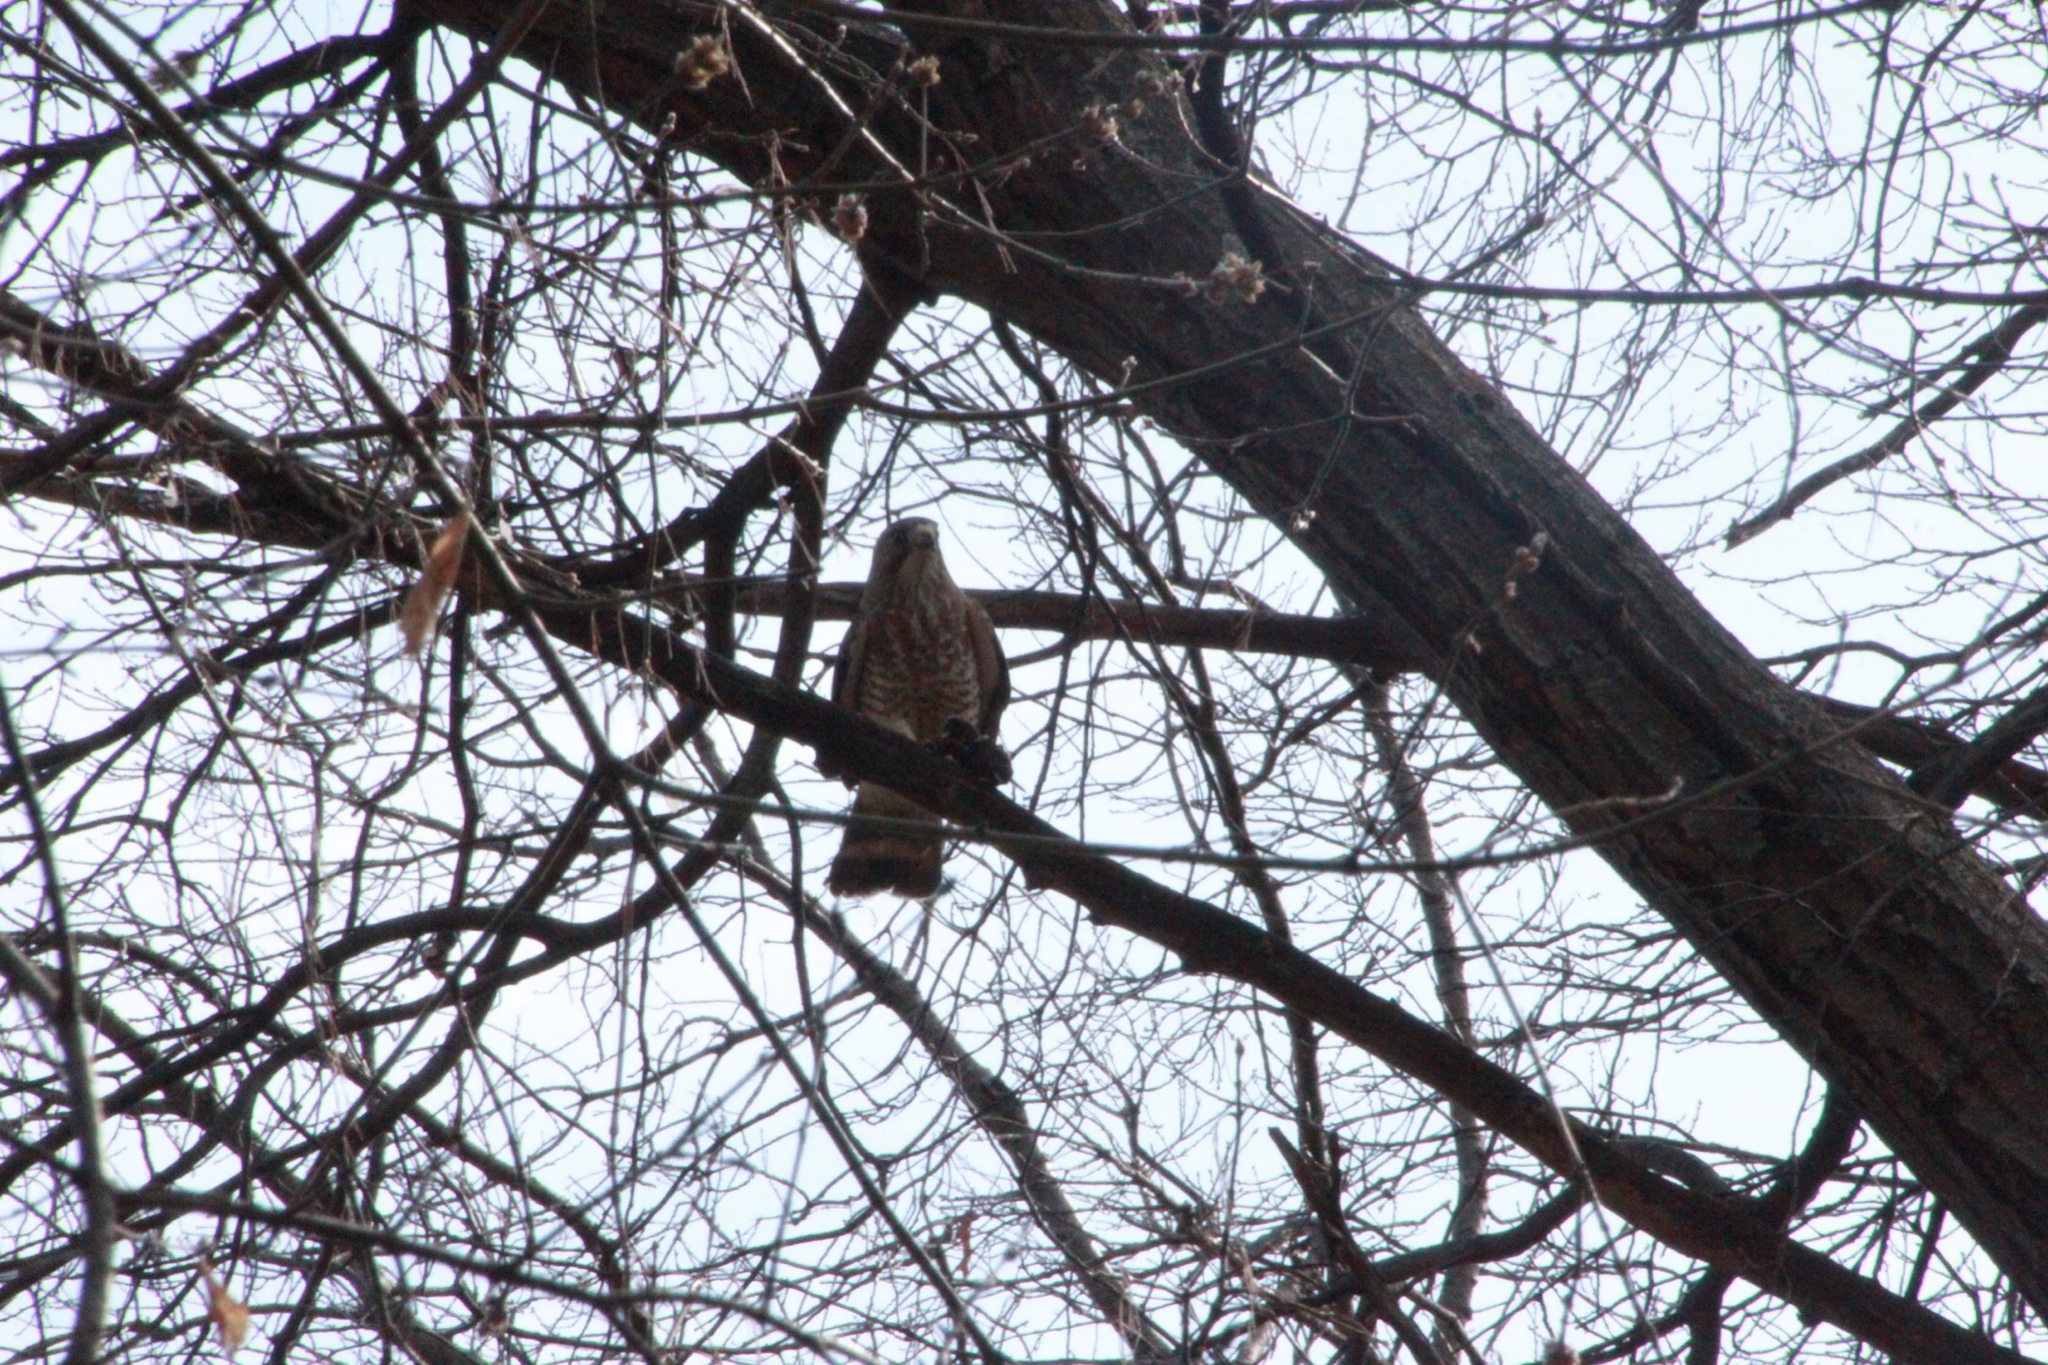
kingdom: Animalia
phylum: Chordata
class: Aves
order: Accipitriformes
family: Accipitridae
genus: Buteo
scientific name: Buteo platypterus
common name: Broad-winged hawk
